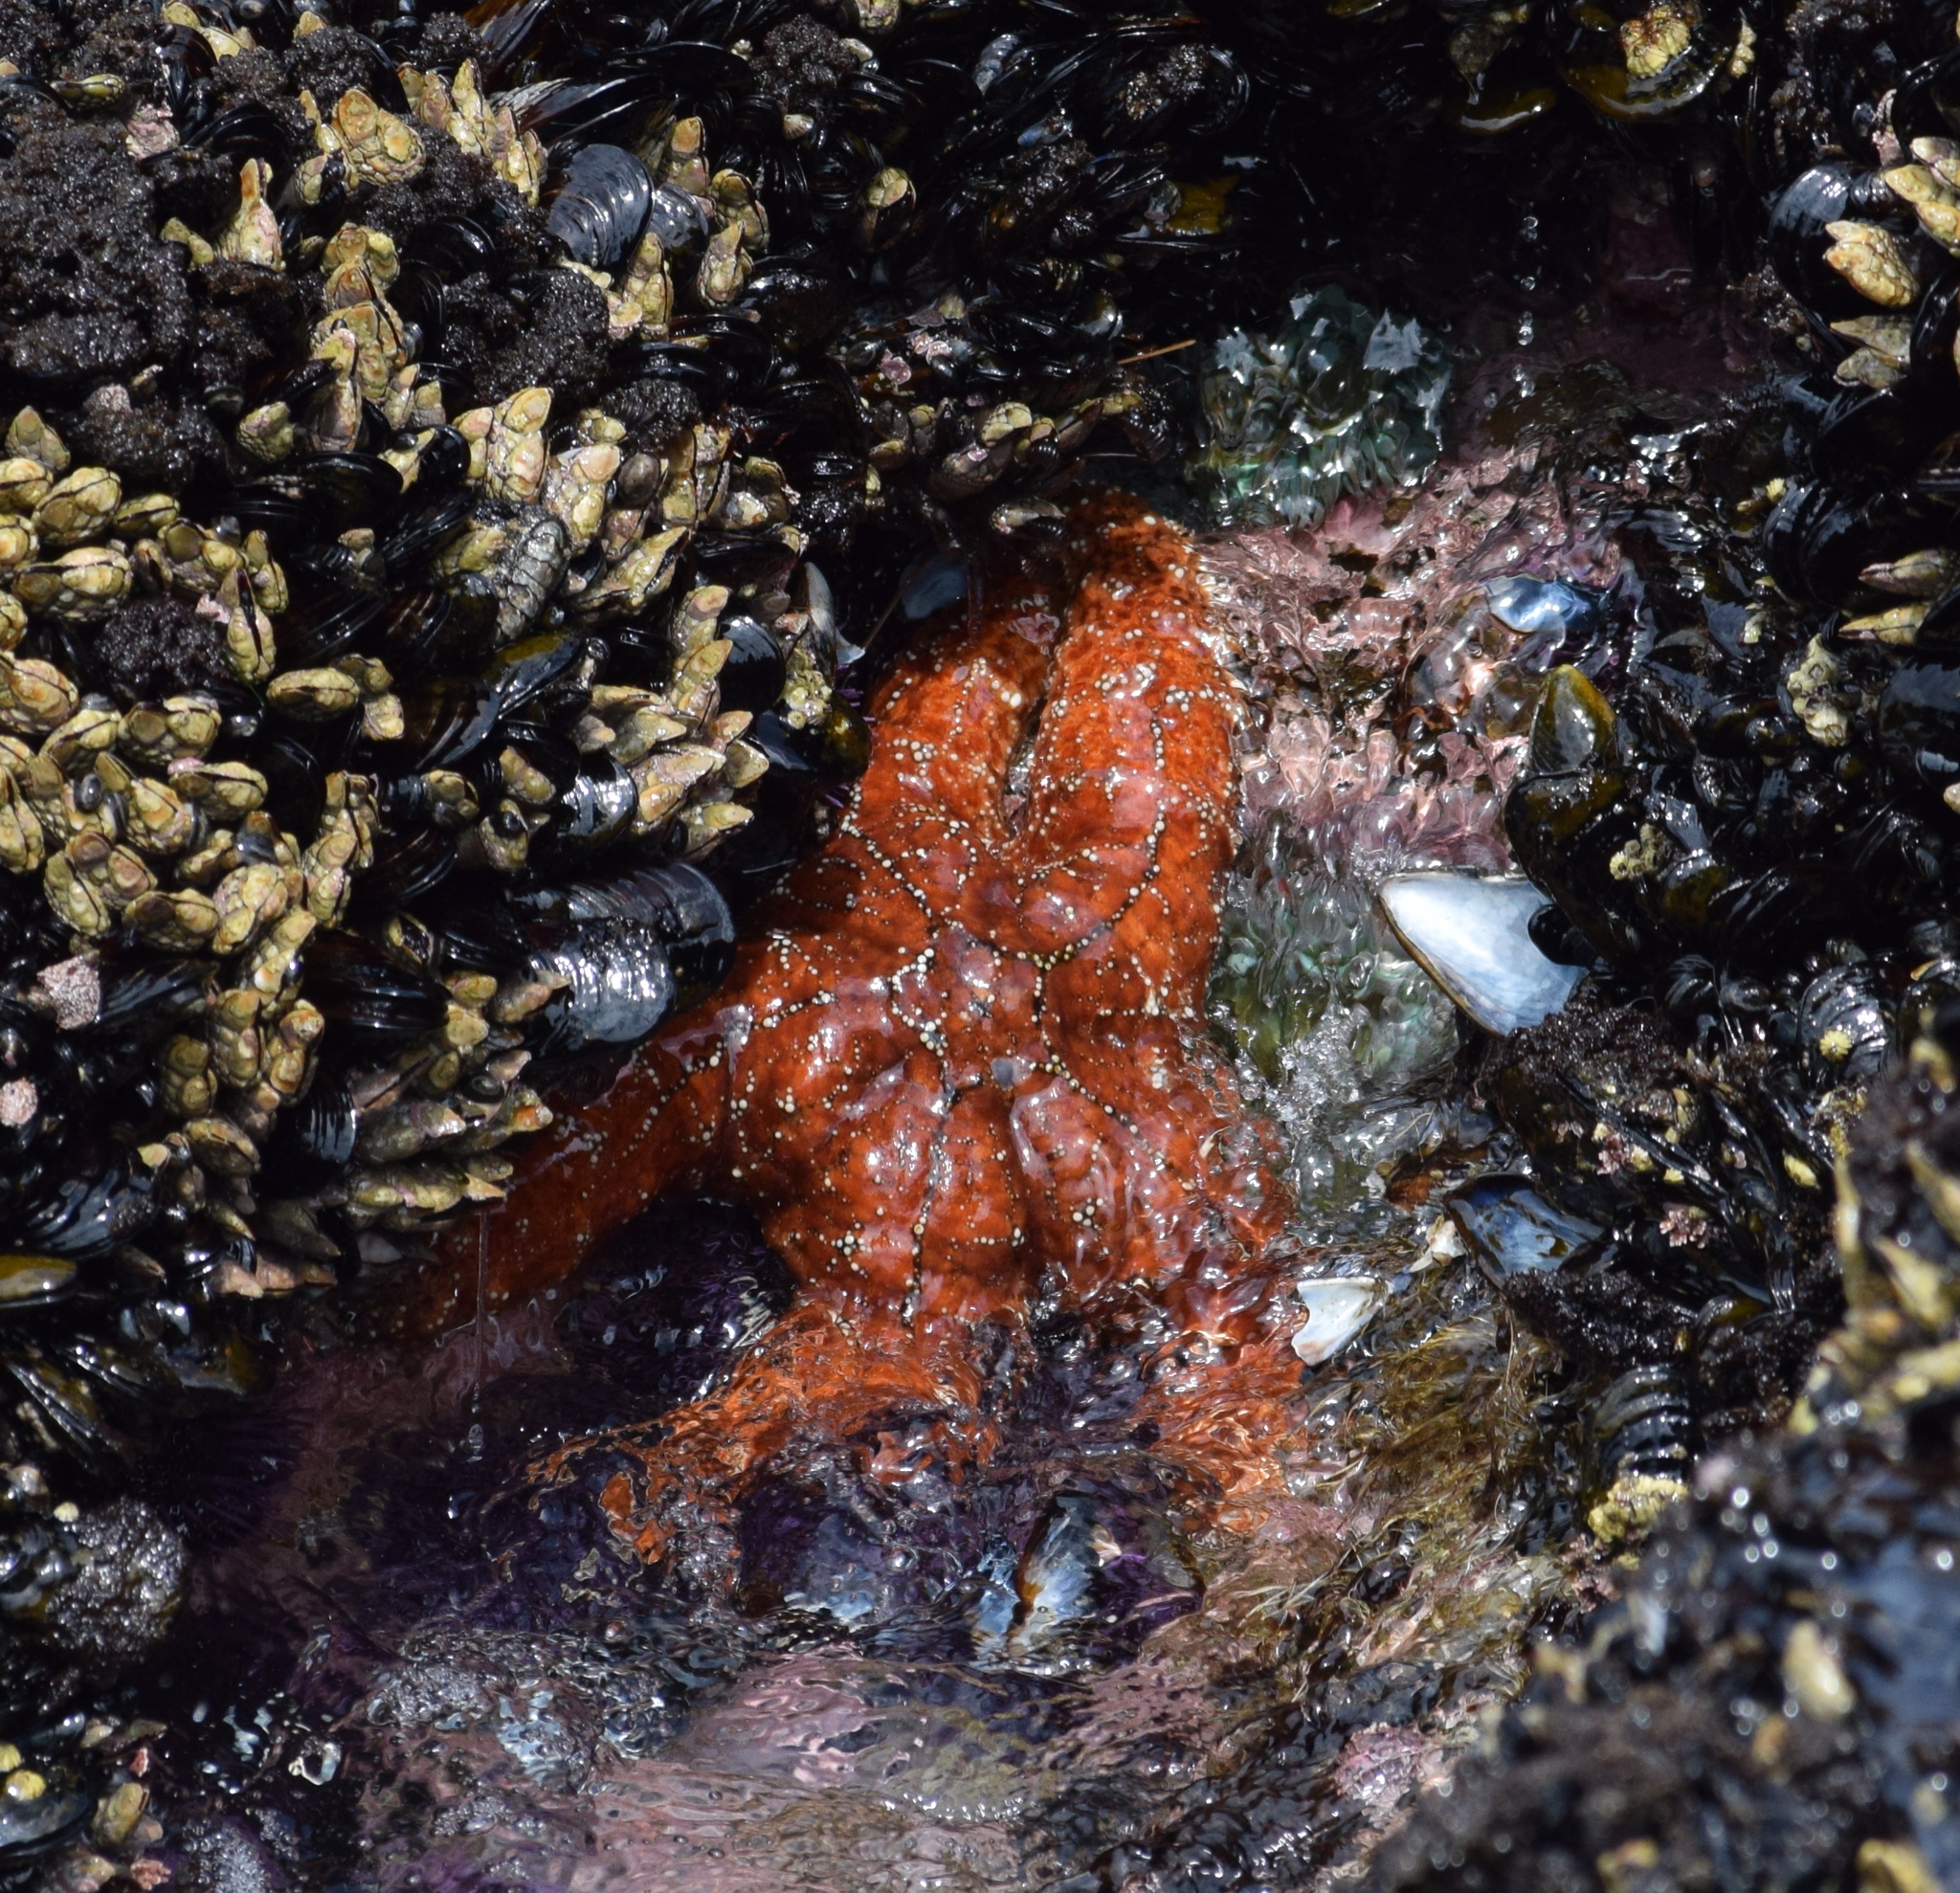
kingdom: Animalia
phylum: Echinodermata
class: Asteroidea
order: Forcipulatida
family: Asteriidae
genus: Pisaster
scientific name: Pisaster ochraceus
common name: Ochre stars
